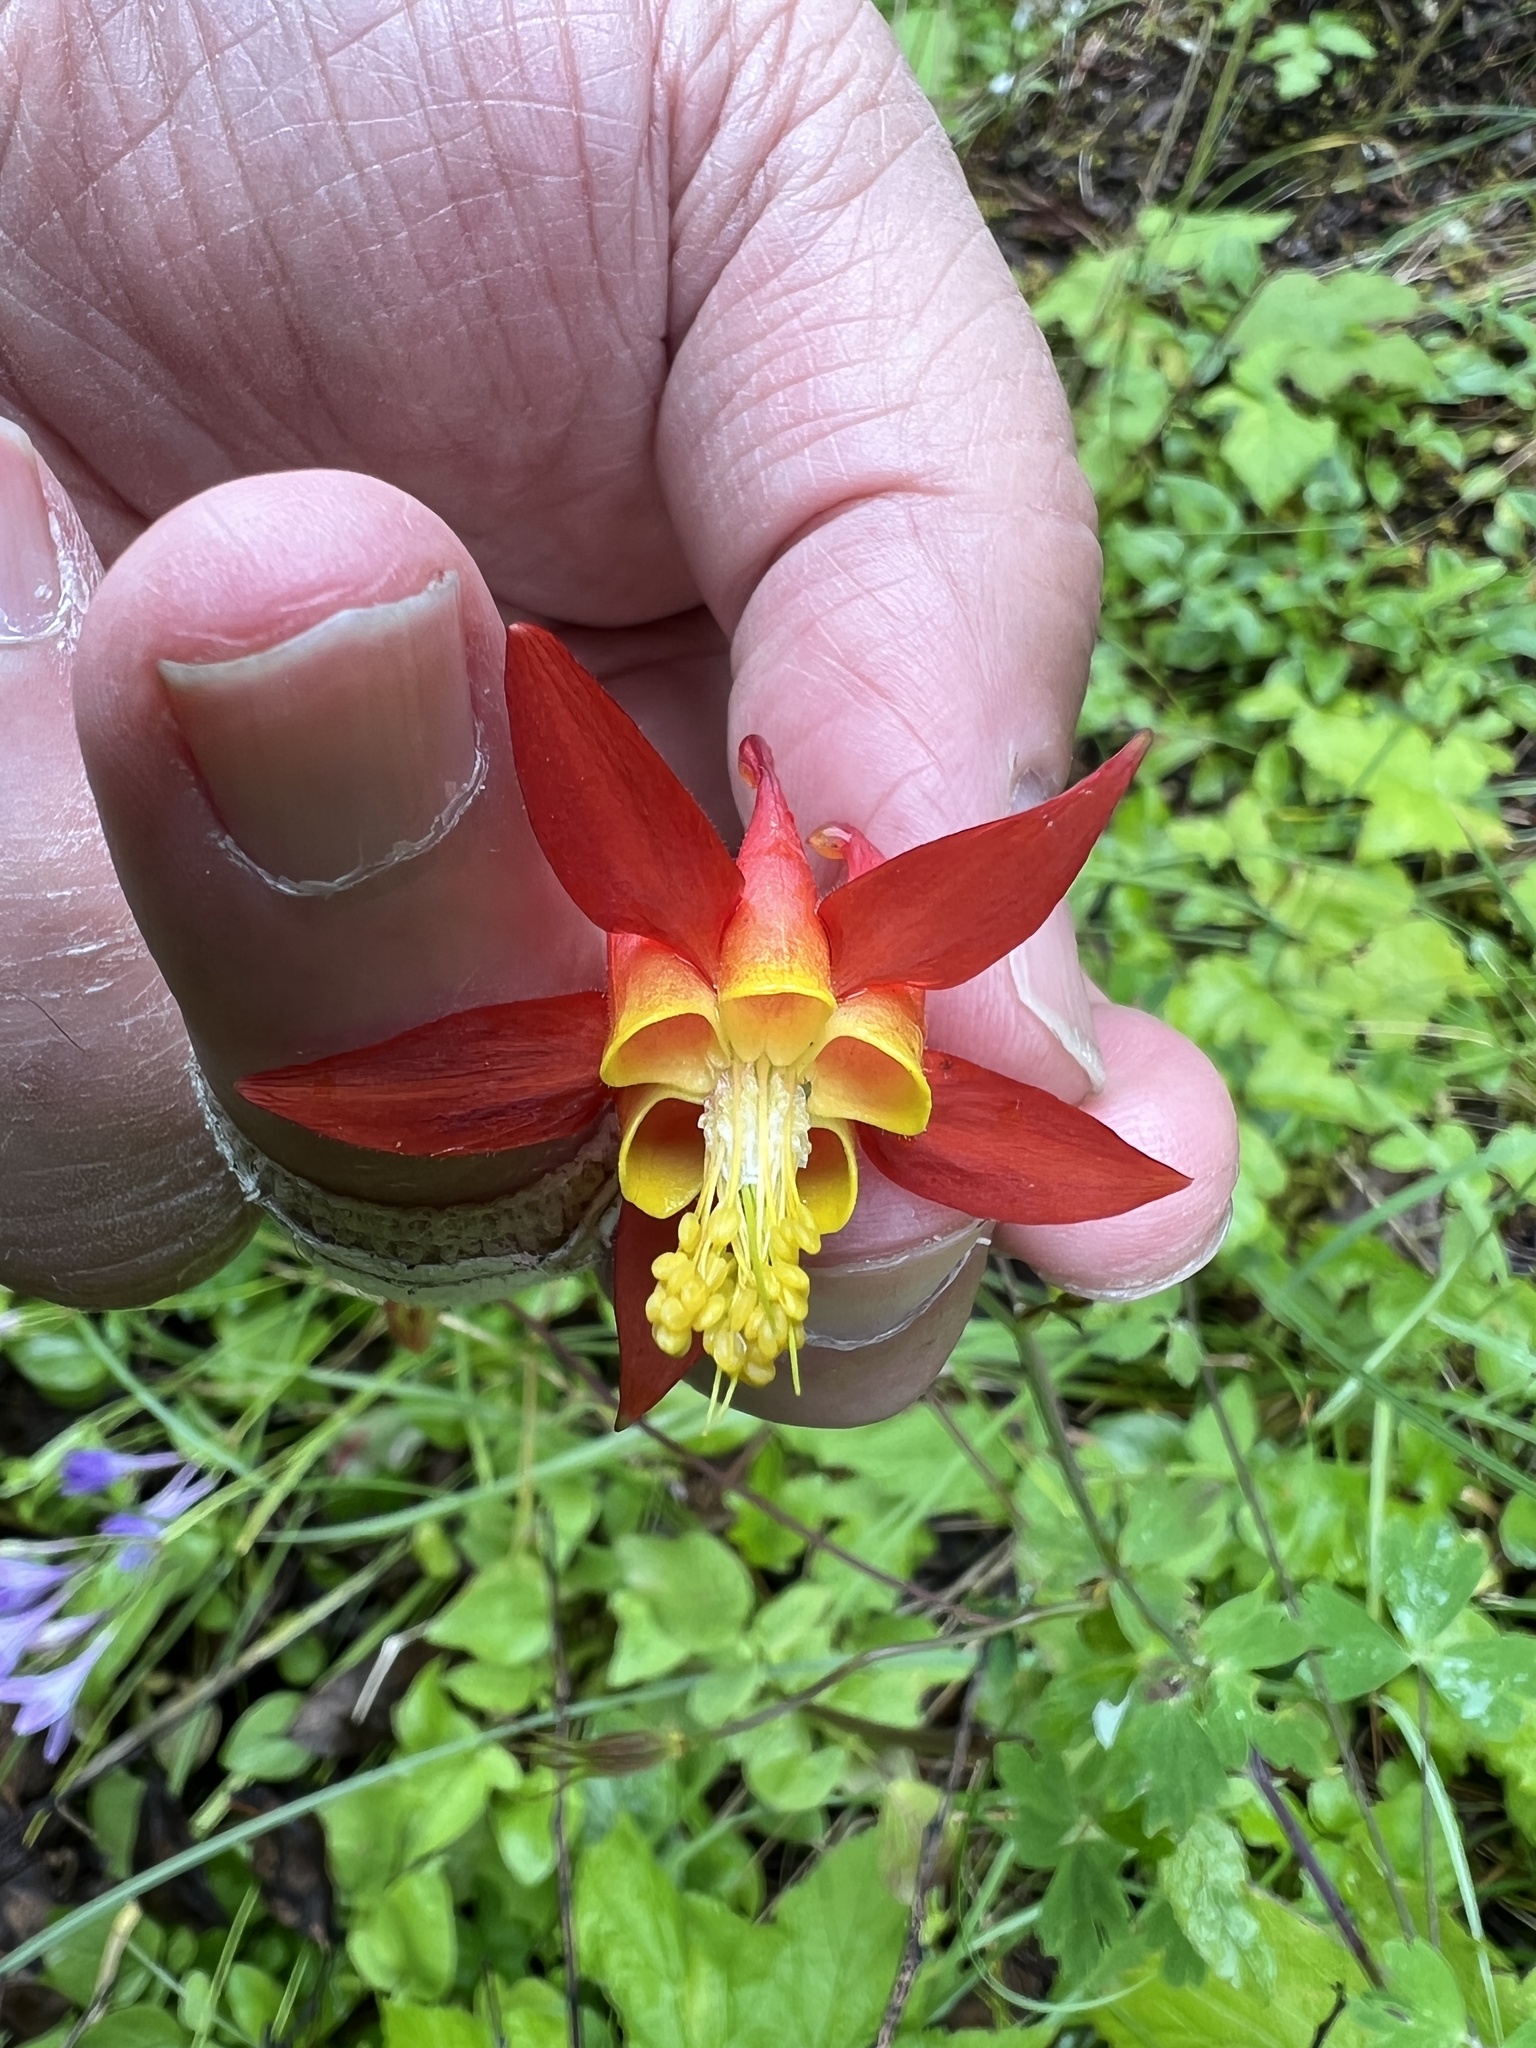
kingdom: Plantae
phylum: Tracheophyta
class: Magnoliopsida
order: Ranunculales
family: Ranunculaceae
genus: Aquilegia
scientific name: Aquilegia formosa
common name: Sitka columbine
